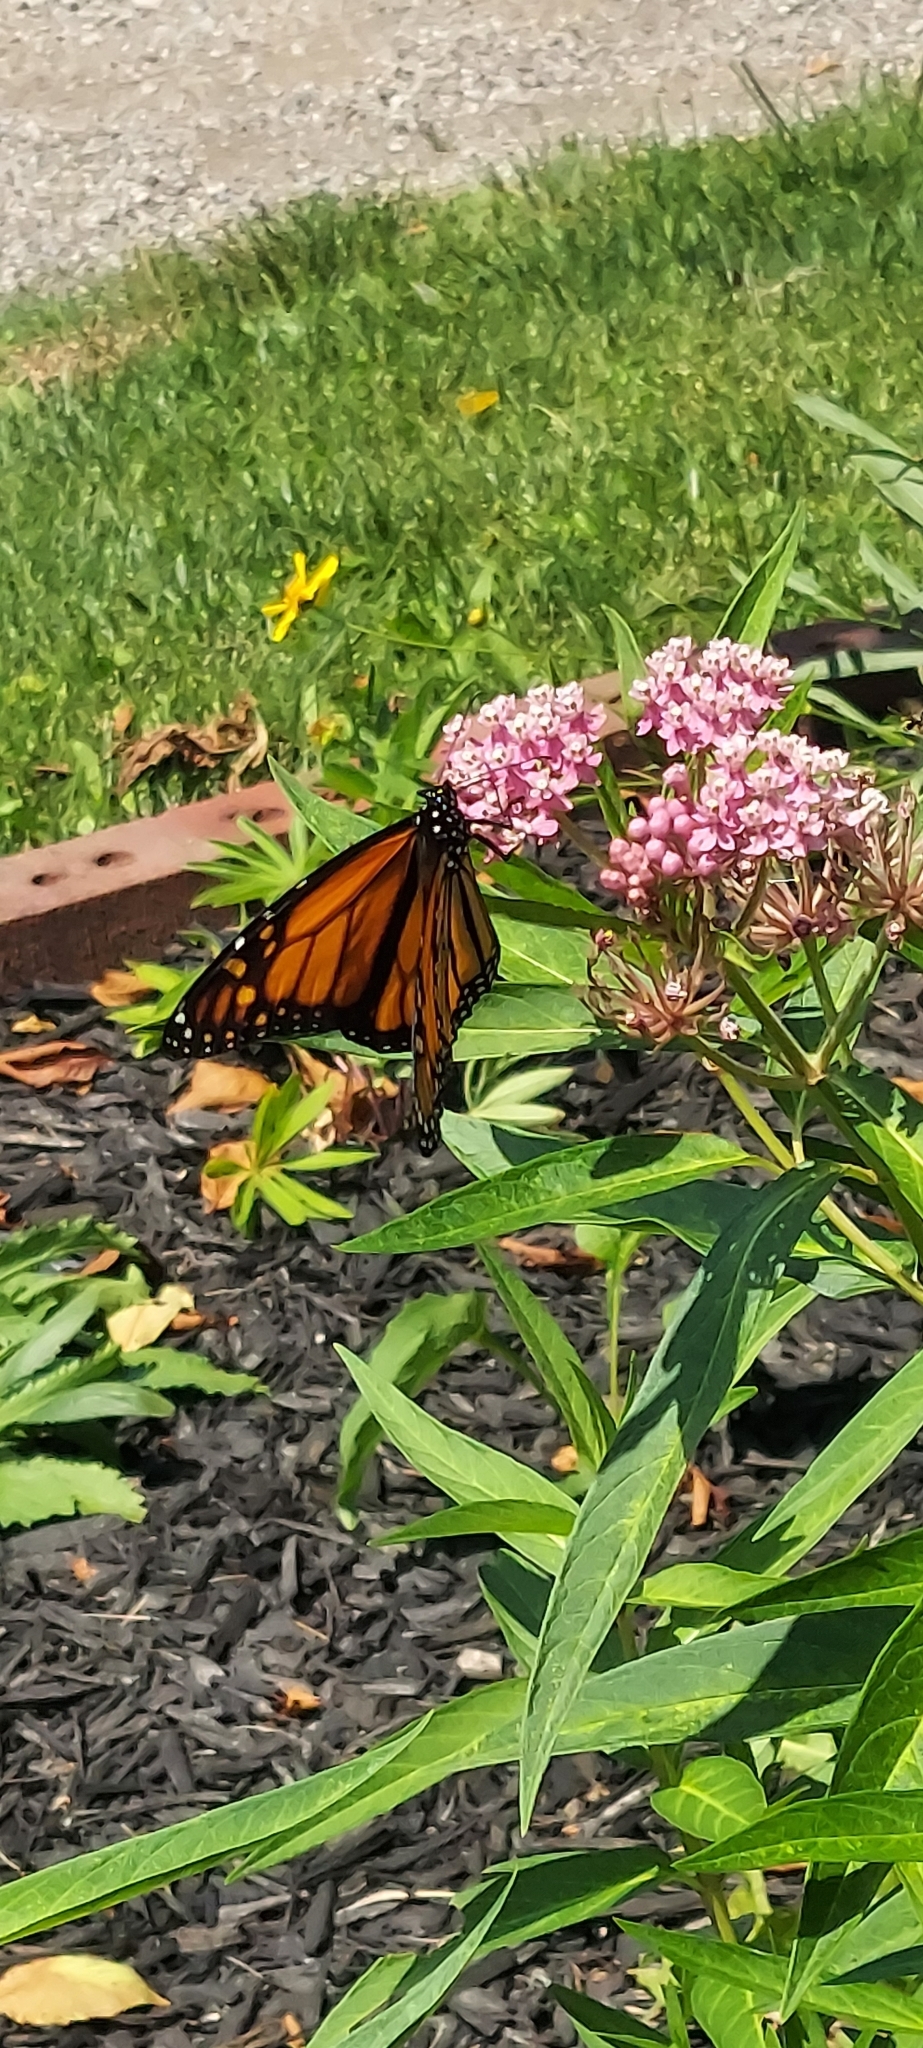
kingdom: Animalia
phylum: Arthropoda
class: Insecta
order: Lepidoptera
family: Nymphalidae
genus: Danaus
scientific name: Danaus plexippus
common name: Monarch
